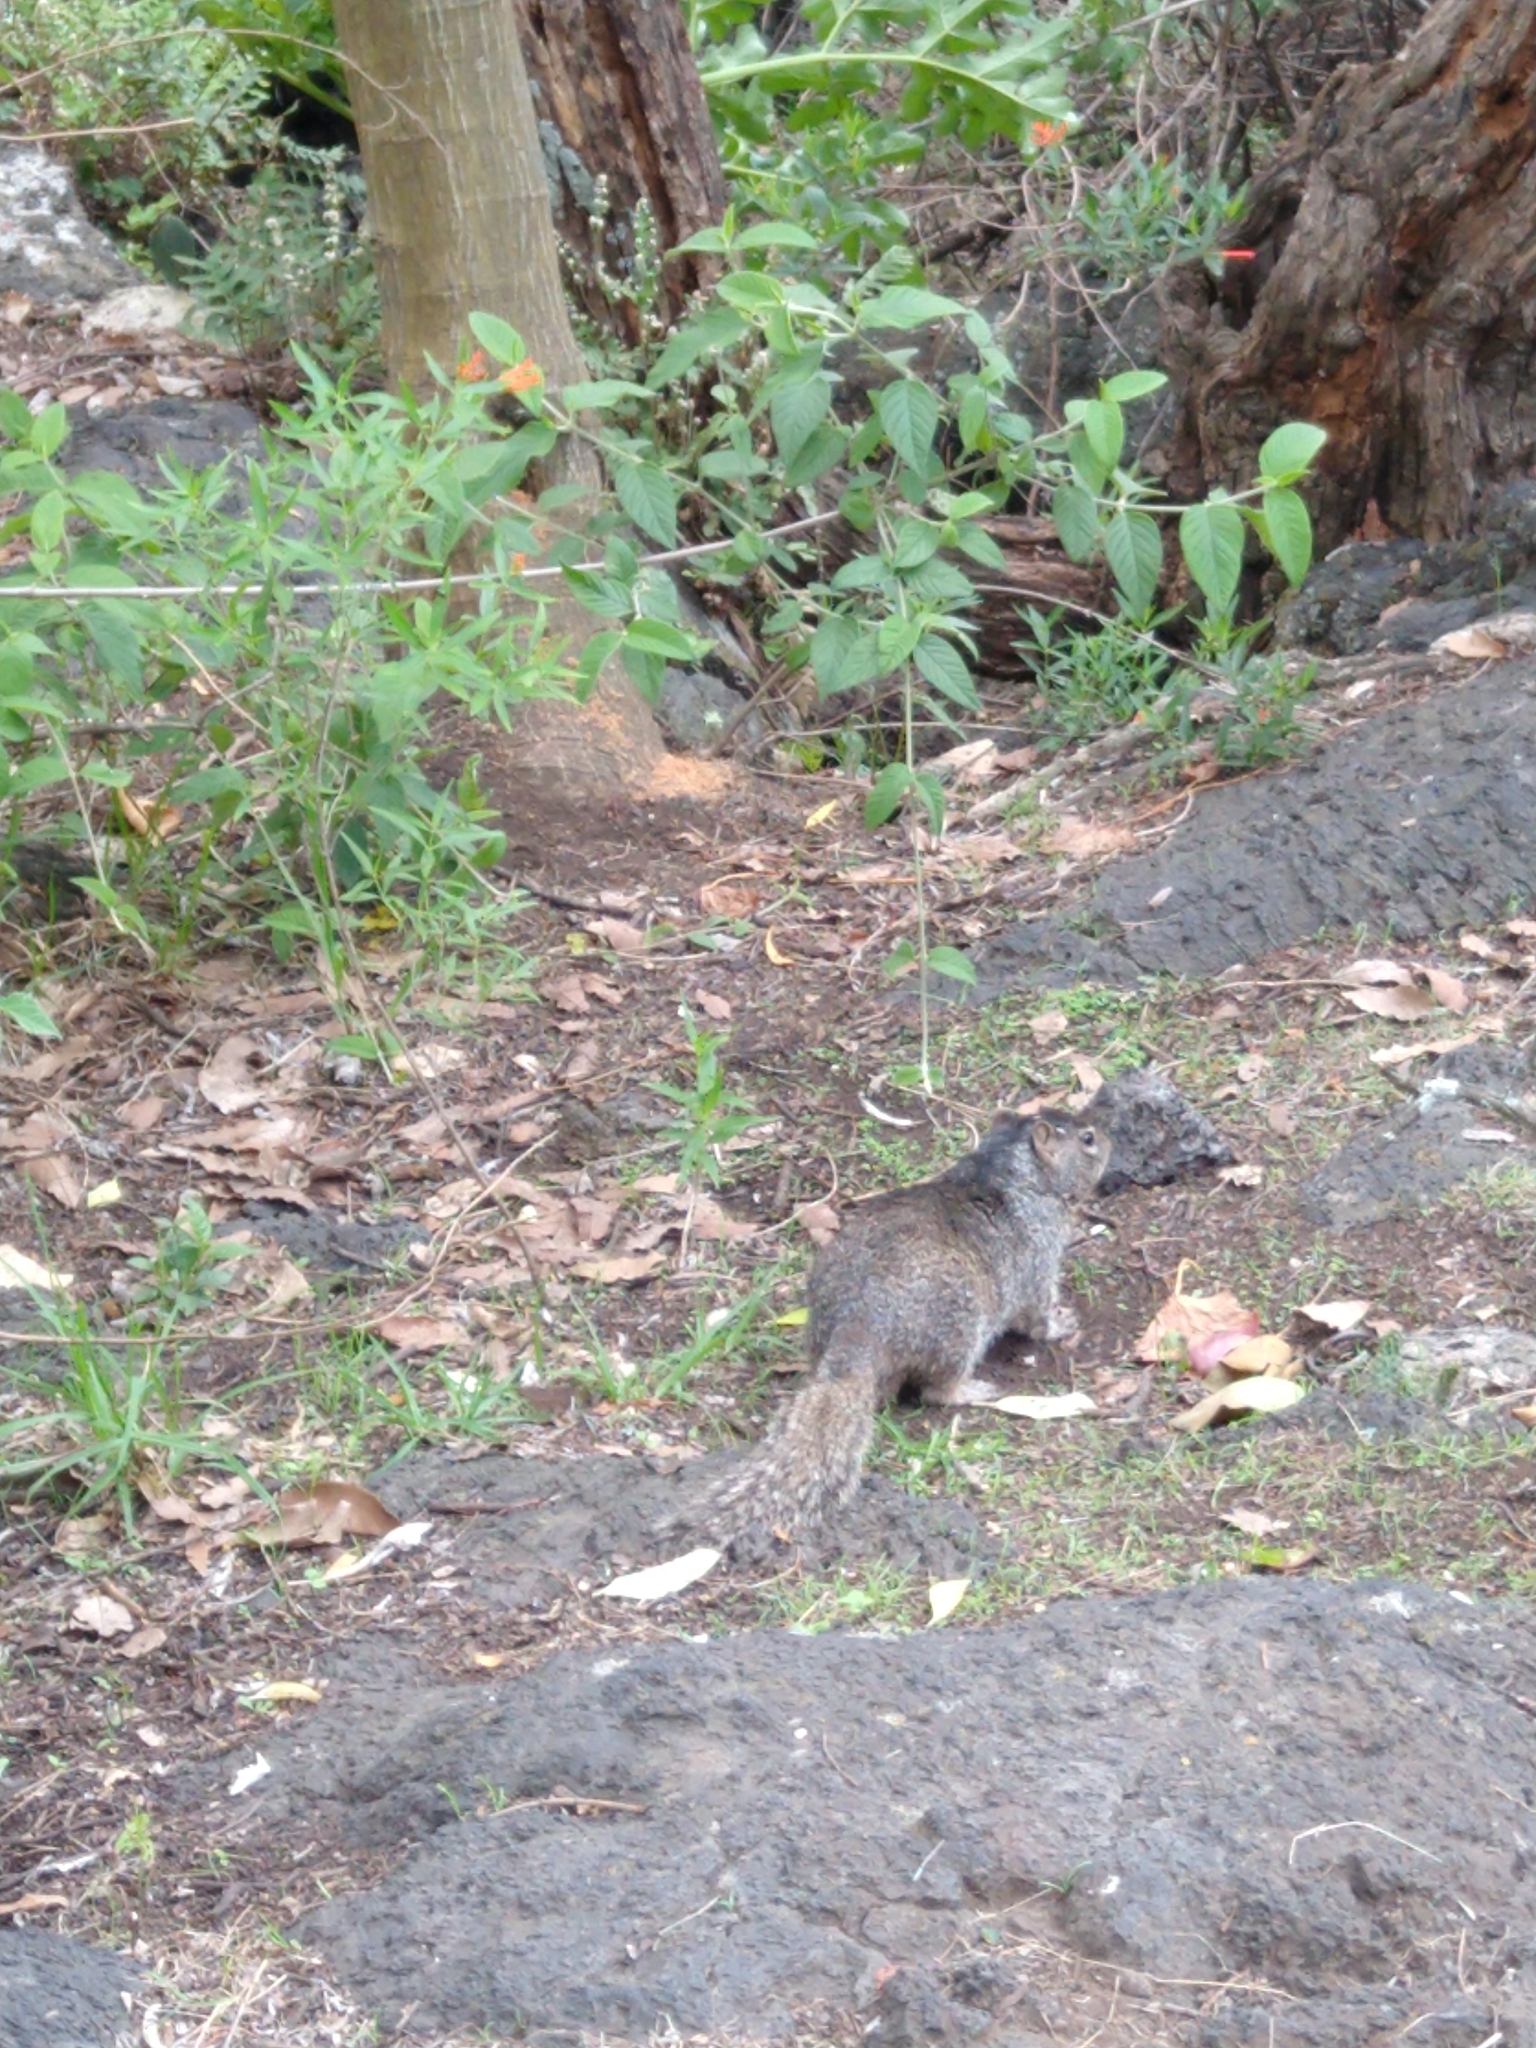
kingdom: Animalia
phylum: Chordata
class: Mammalia
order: Rodentia
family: Sciuridae
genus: Otospermophilus
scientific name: Otospermophilus variegatus
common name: Rock squirrel
